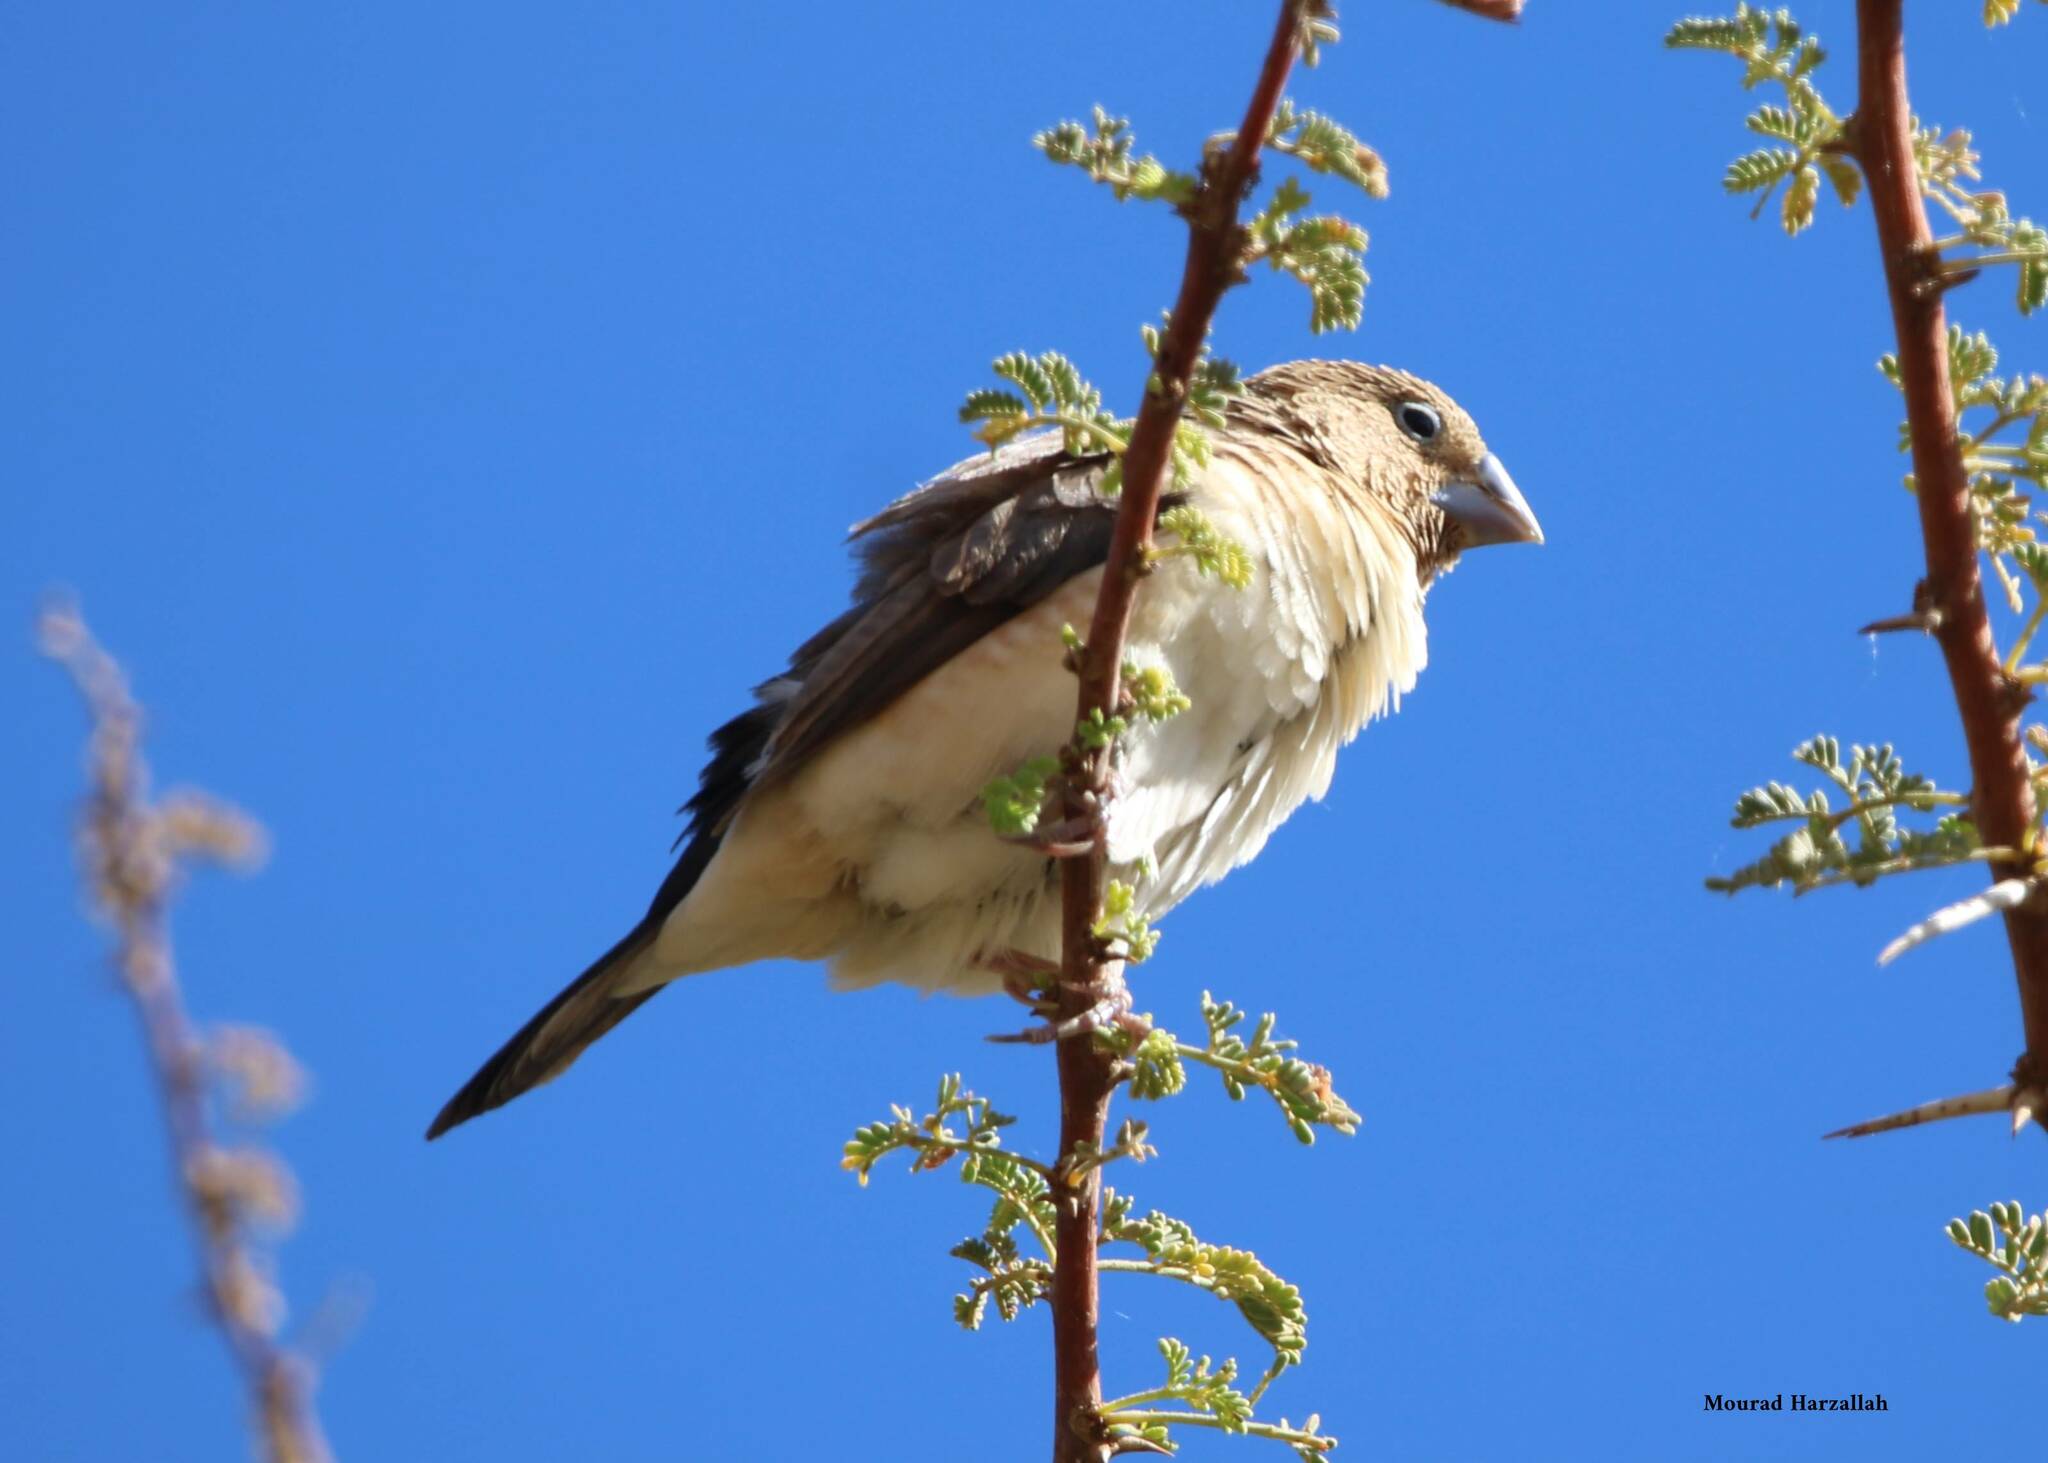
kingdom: Animalia
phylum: Chordata
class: Aves
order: Passeriformes
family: Estrildidae
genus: Euodice
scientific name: Euodice cantans
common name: African silverbill
